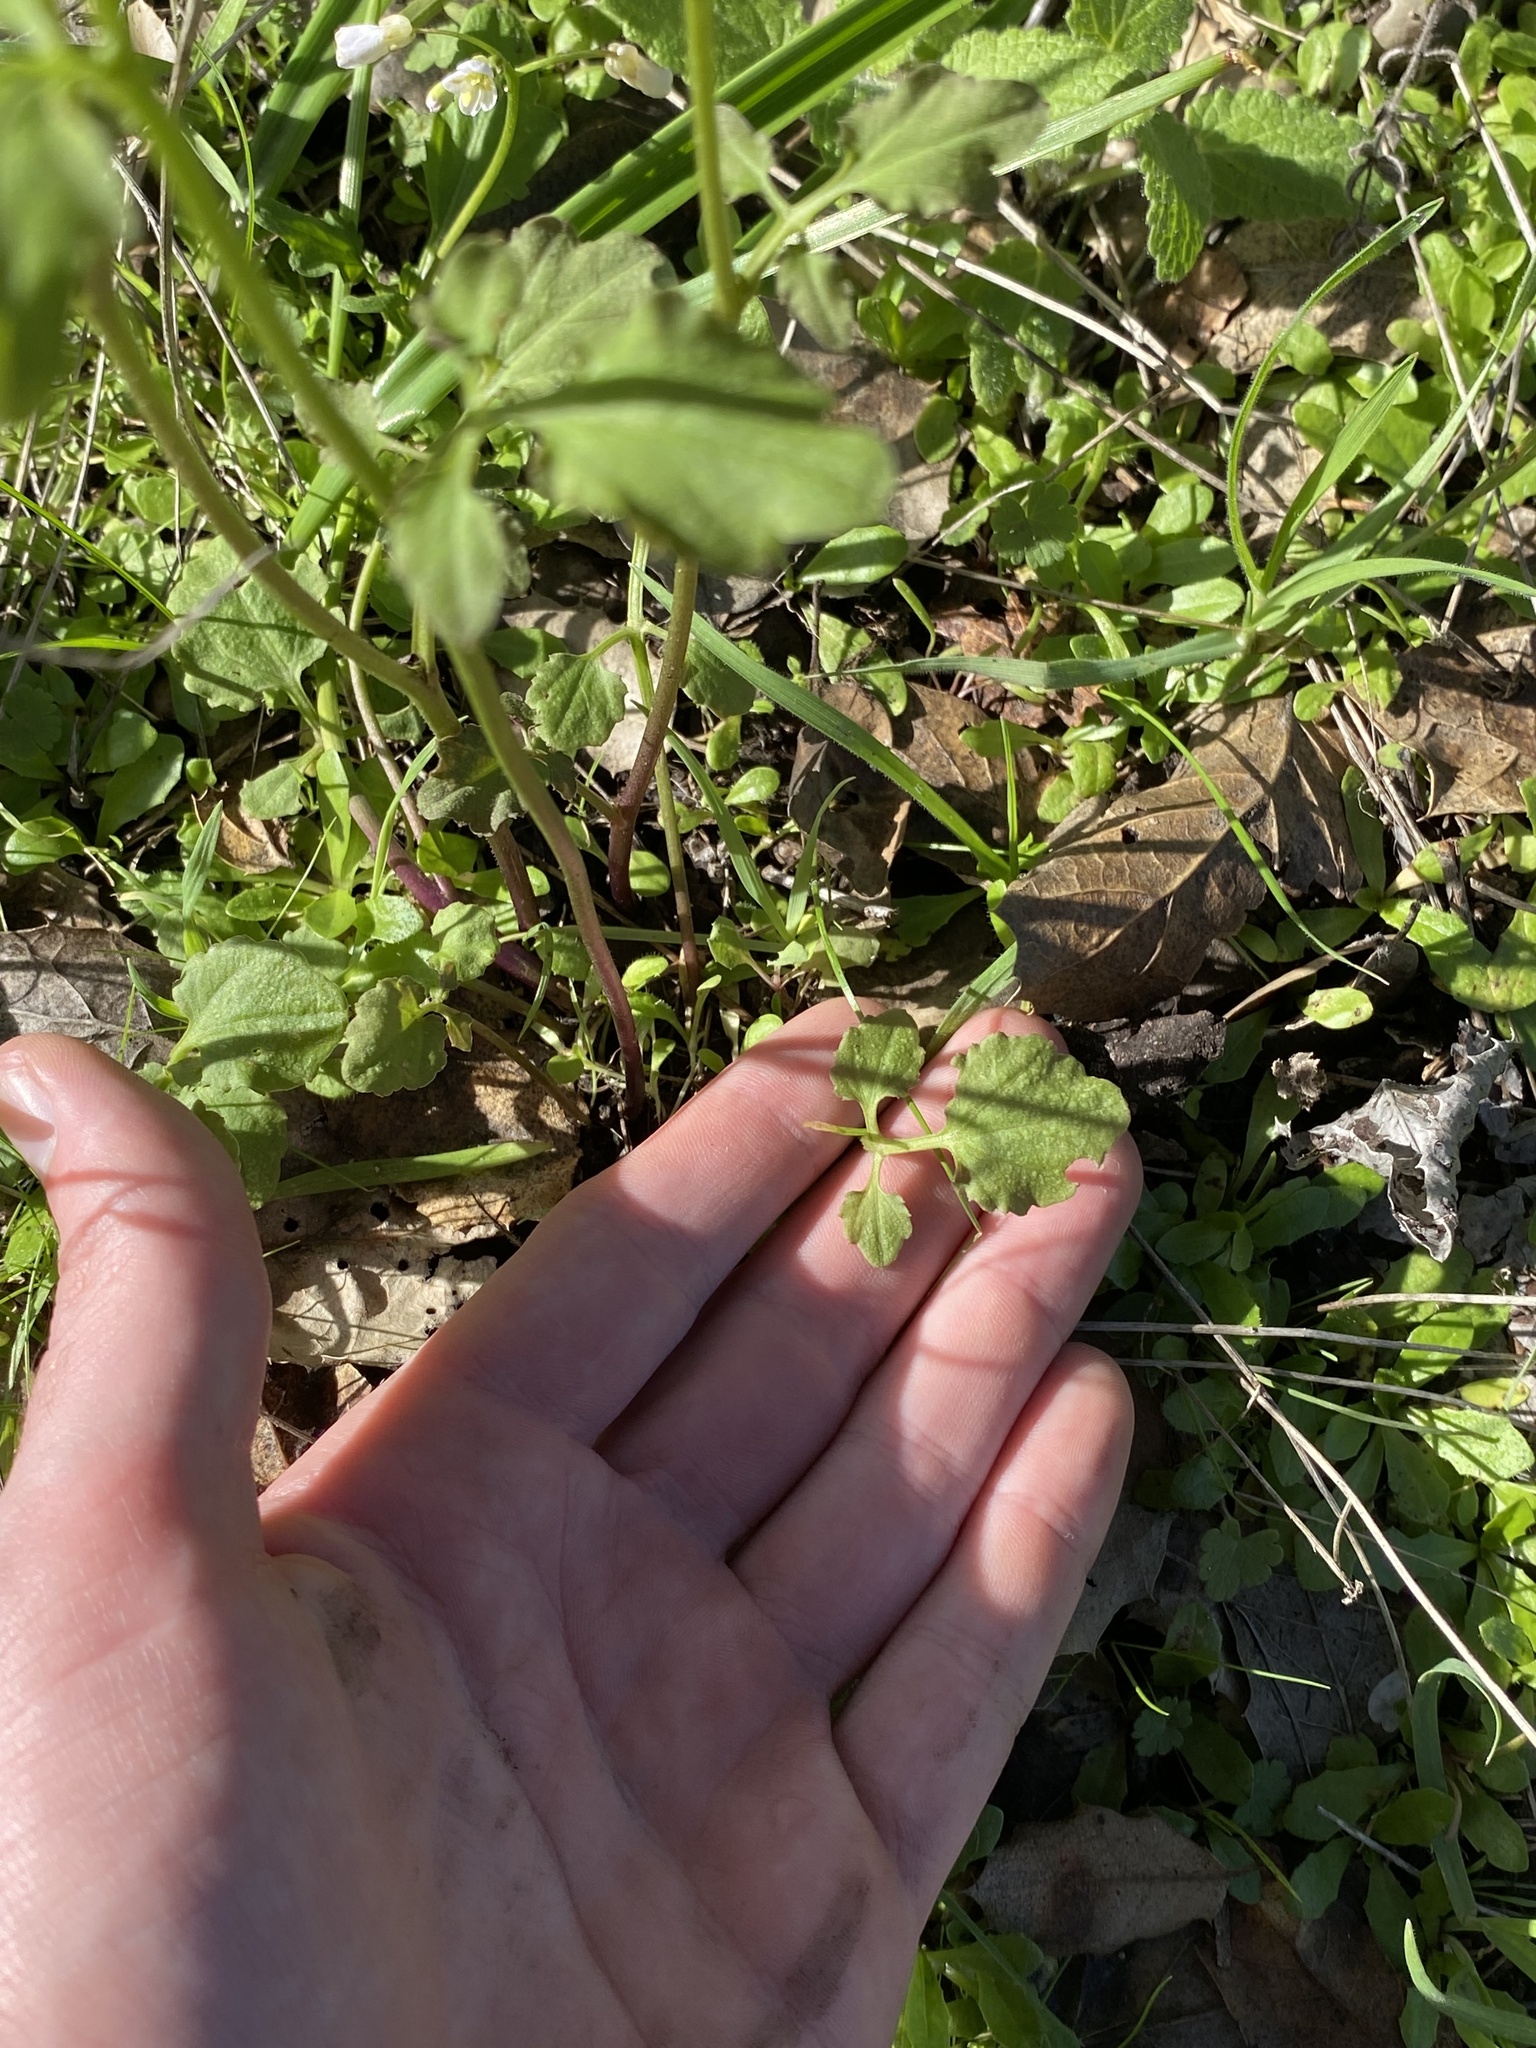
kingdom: Plantae
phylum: Tracheophyta
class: Magnoliopsida
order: Brassicales
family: Brassicaceae
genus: Cardamine
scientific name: Cardamine californica
